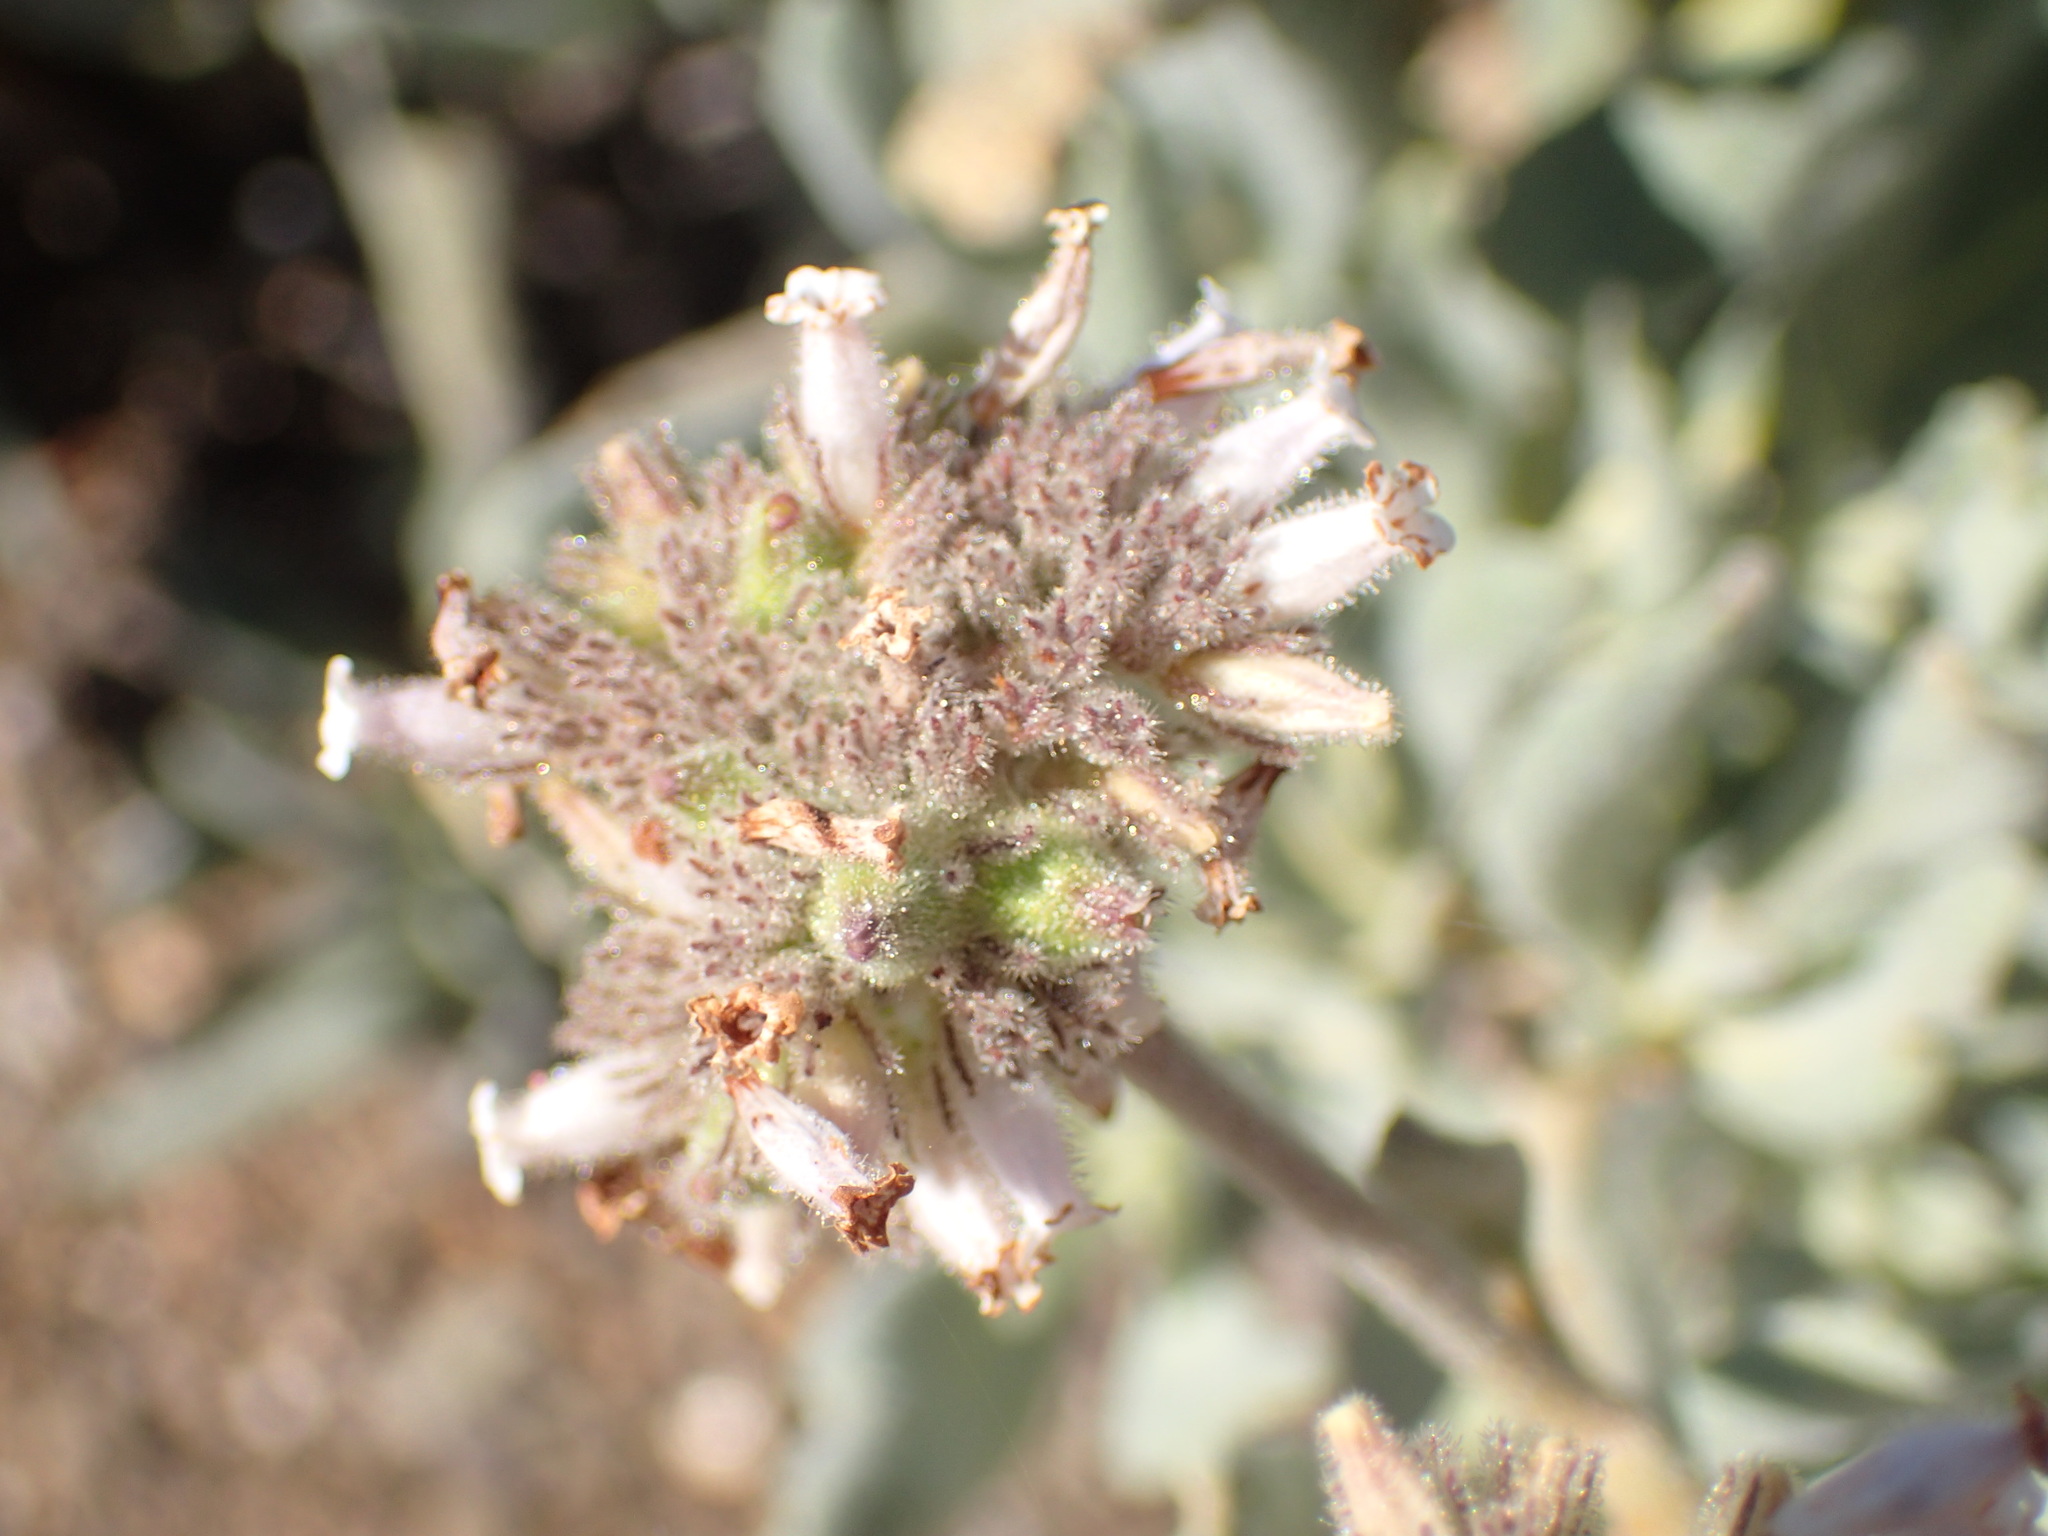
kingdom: Plantae
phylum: Tracheophyta
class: Magnoliopsida
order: Boraginales
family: Namaceae
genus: Eriodictyon
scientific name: Eriodictyon traskiae
